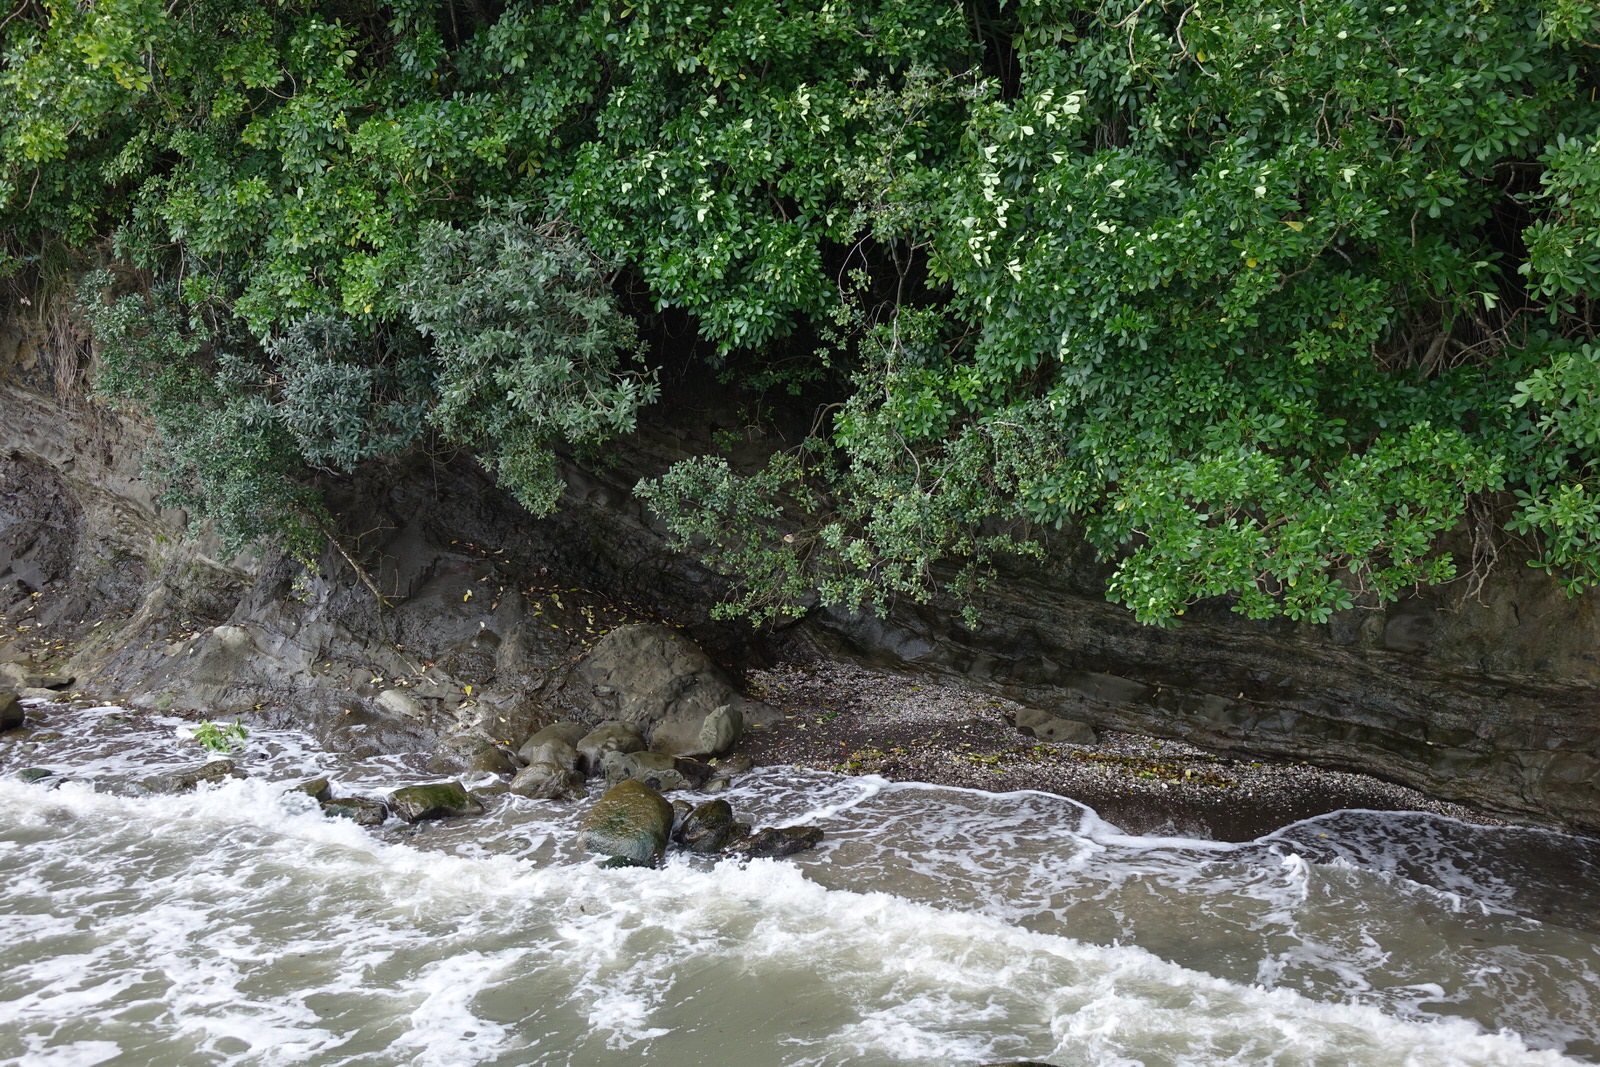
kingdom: Animalia
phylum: Chordata
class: Aves
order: Coraciiformes
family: Alcedinidae
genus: Todiramphus
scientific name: Todiramphus sanctus
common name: Sacred kingfisher
